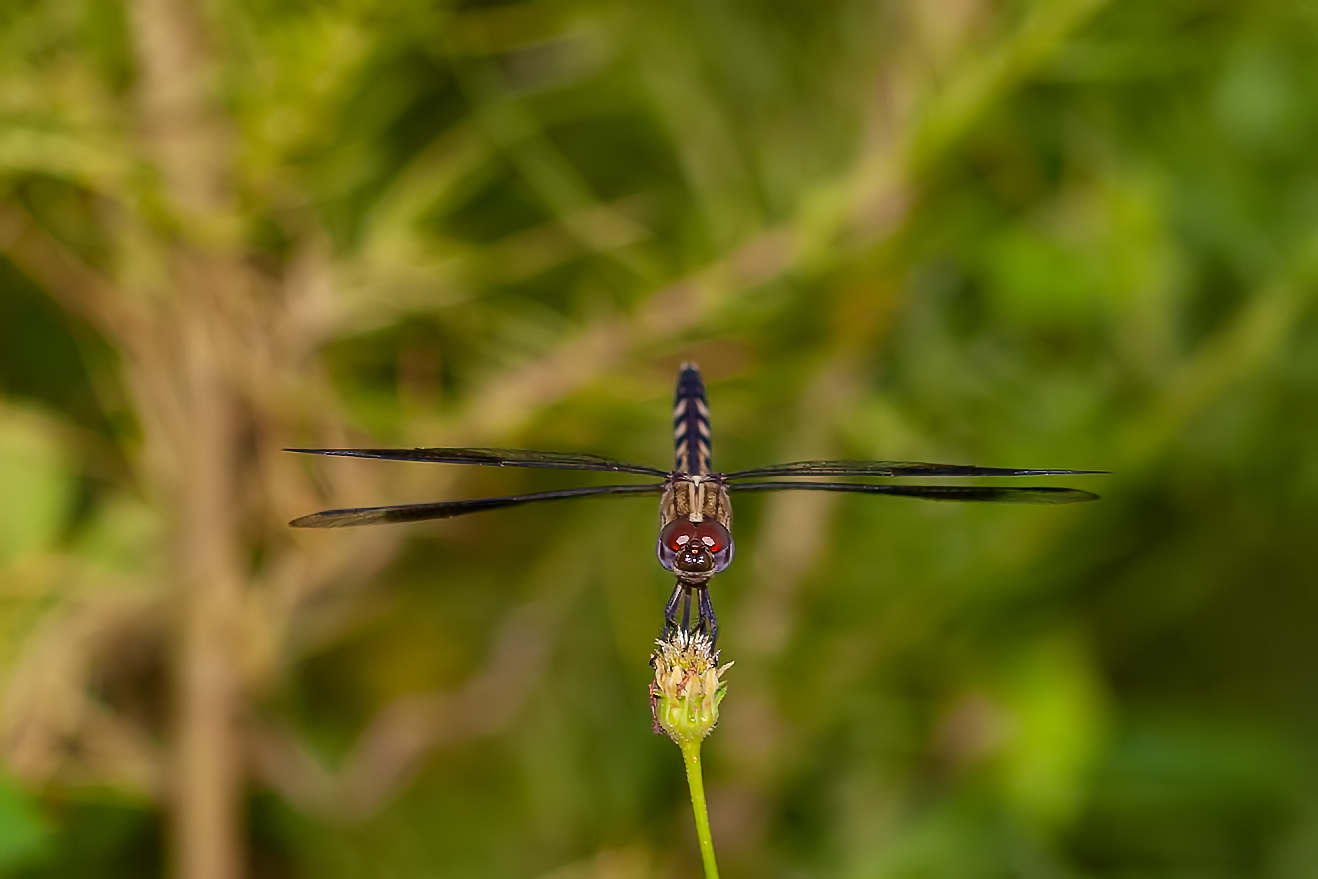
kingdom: Animalia
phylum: Arthropoda
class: Insecta
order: Odonata
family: Libellulidae
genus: Erythrodiplax
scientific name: Erythrodiplax umbrata
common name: Band-winged dragonlet
